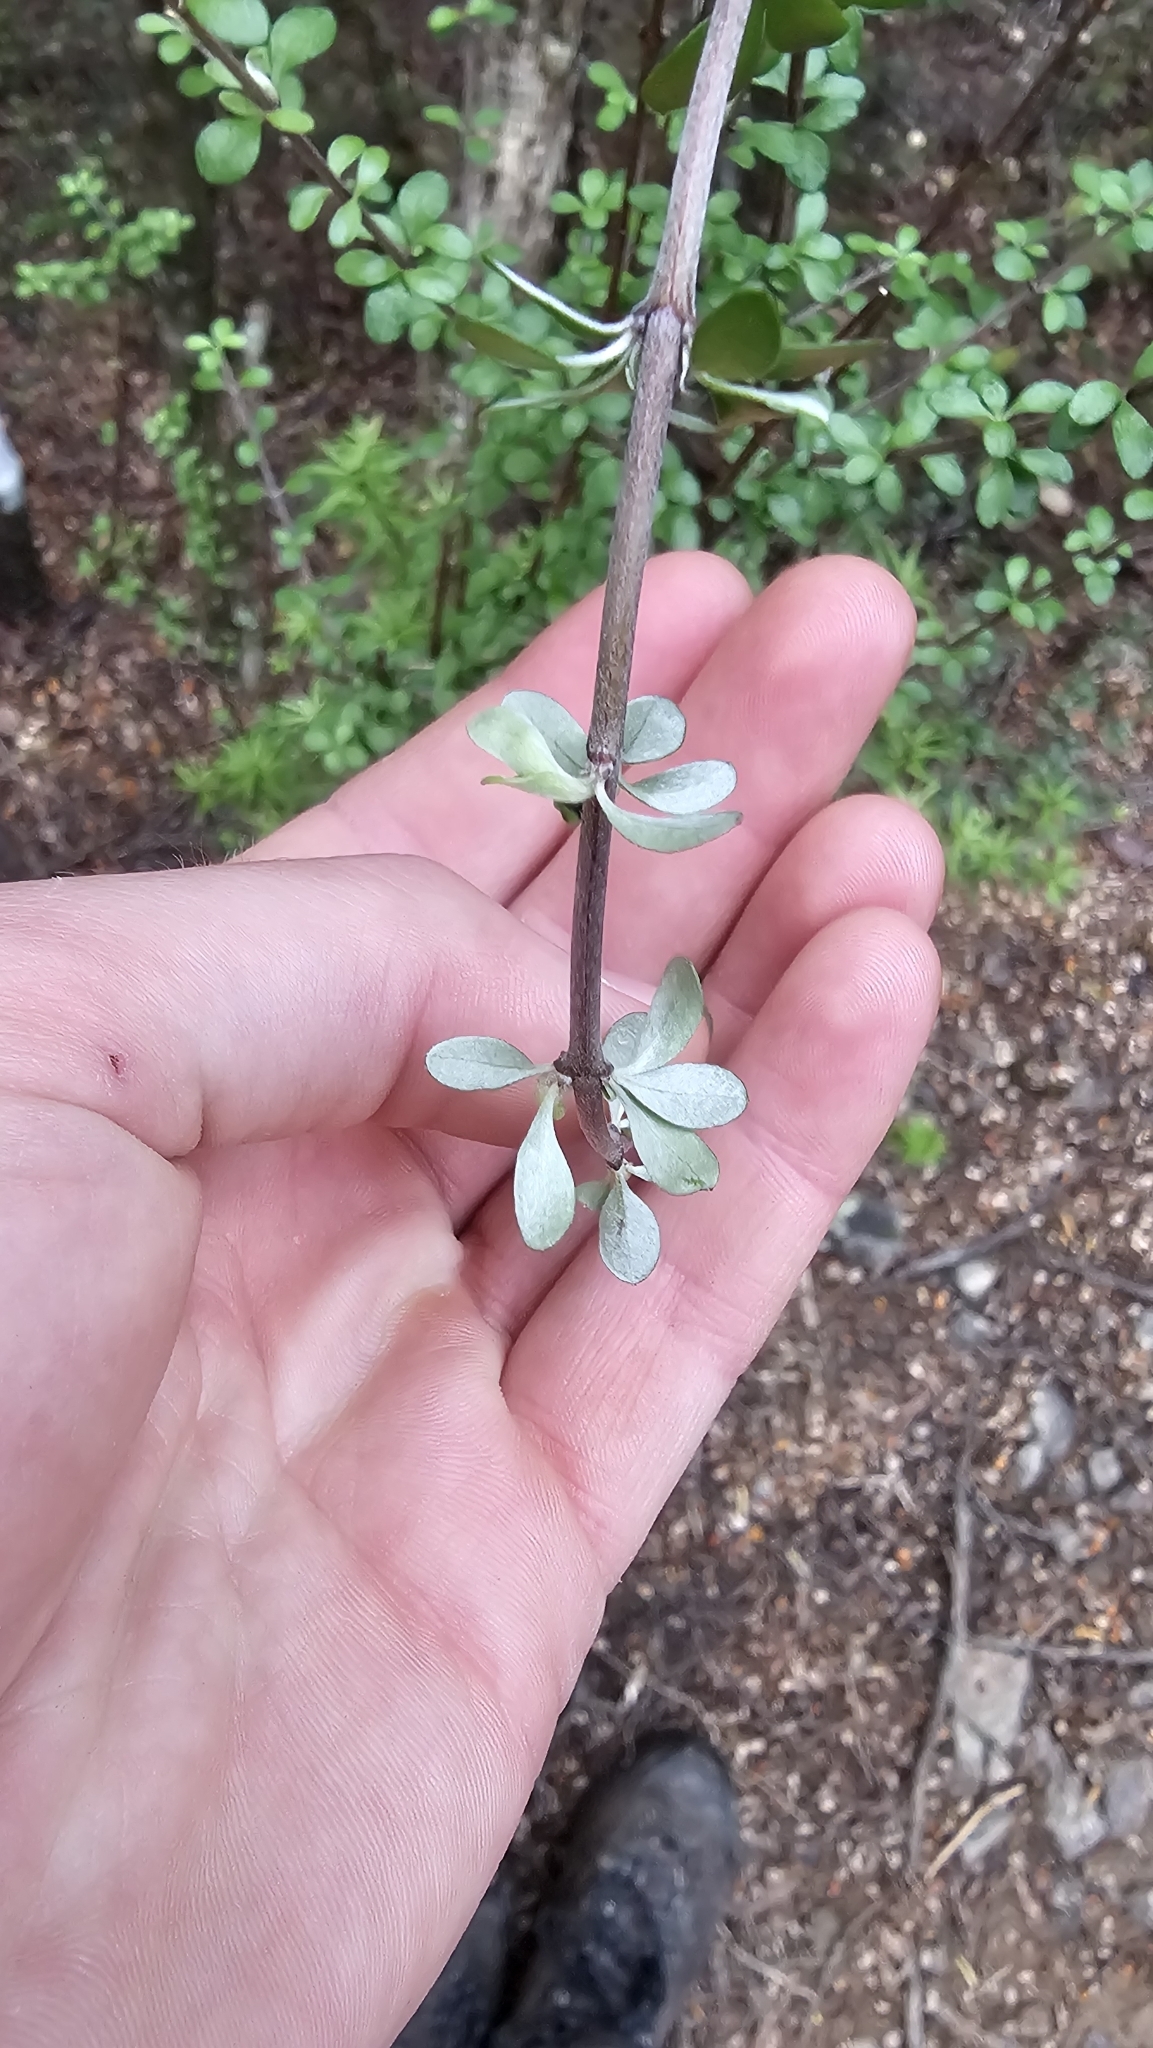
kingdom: Plantae
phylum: Tracheophyta
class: Magnoliopsida
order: Asterales
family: Asteraceae
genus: Olearia
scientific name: Olearia virgata
